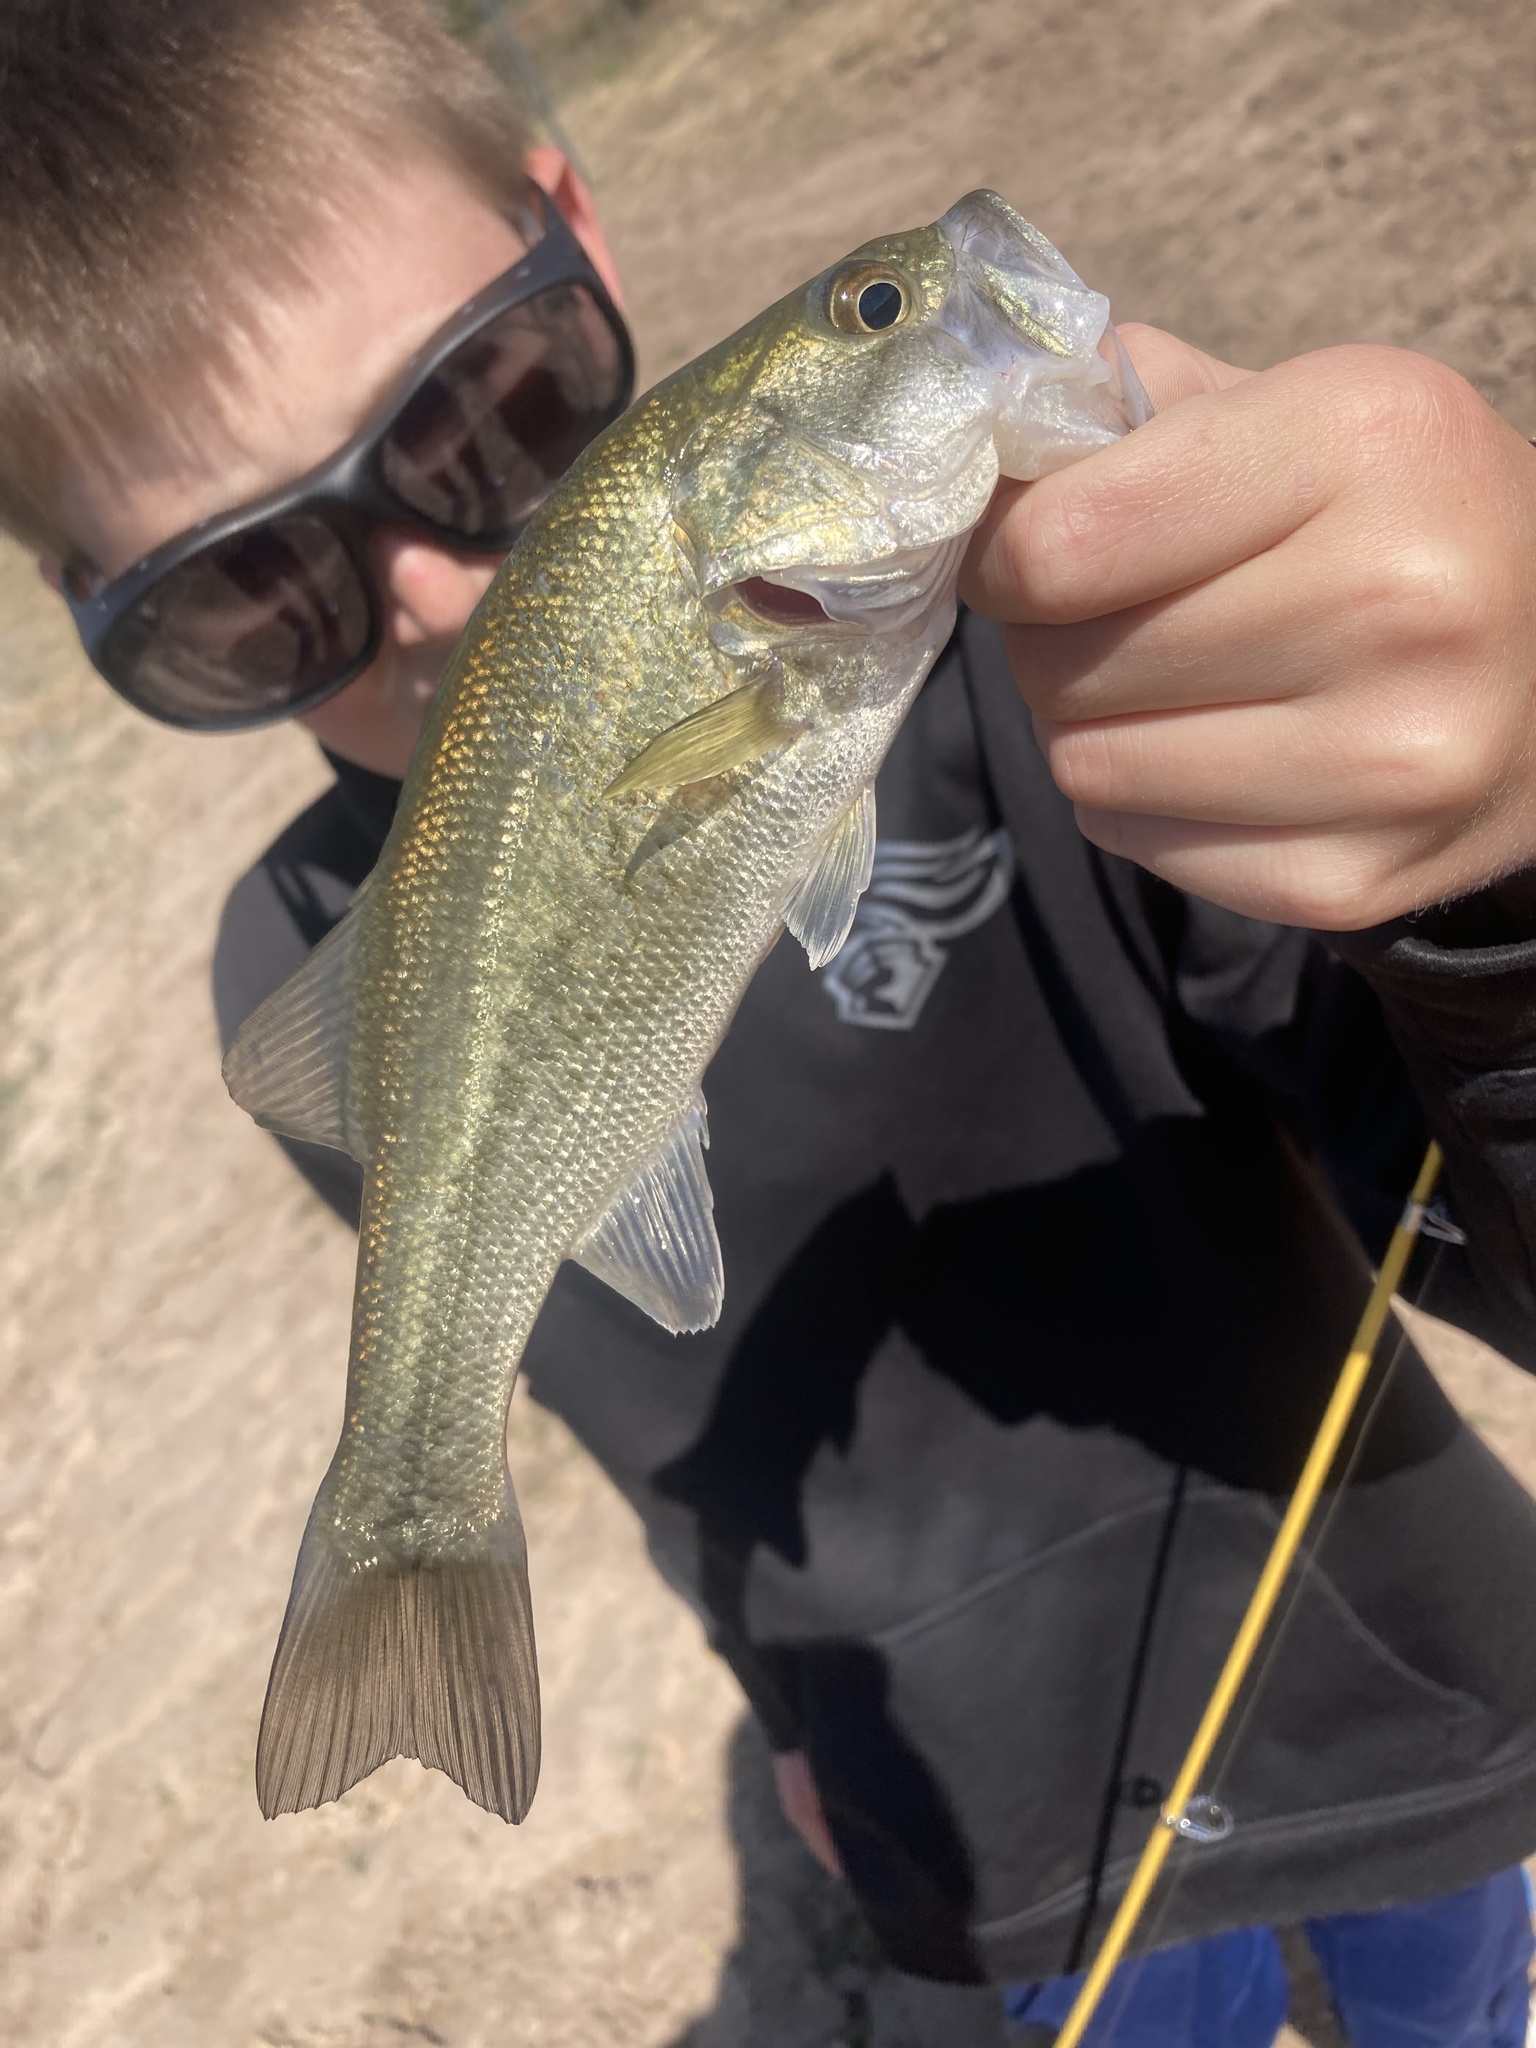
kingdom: Animalia
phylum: Chordata
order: Perciformes
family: Centrarchidae
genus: Micropterus
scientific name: Micropterus
